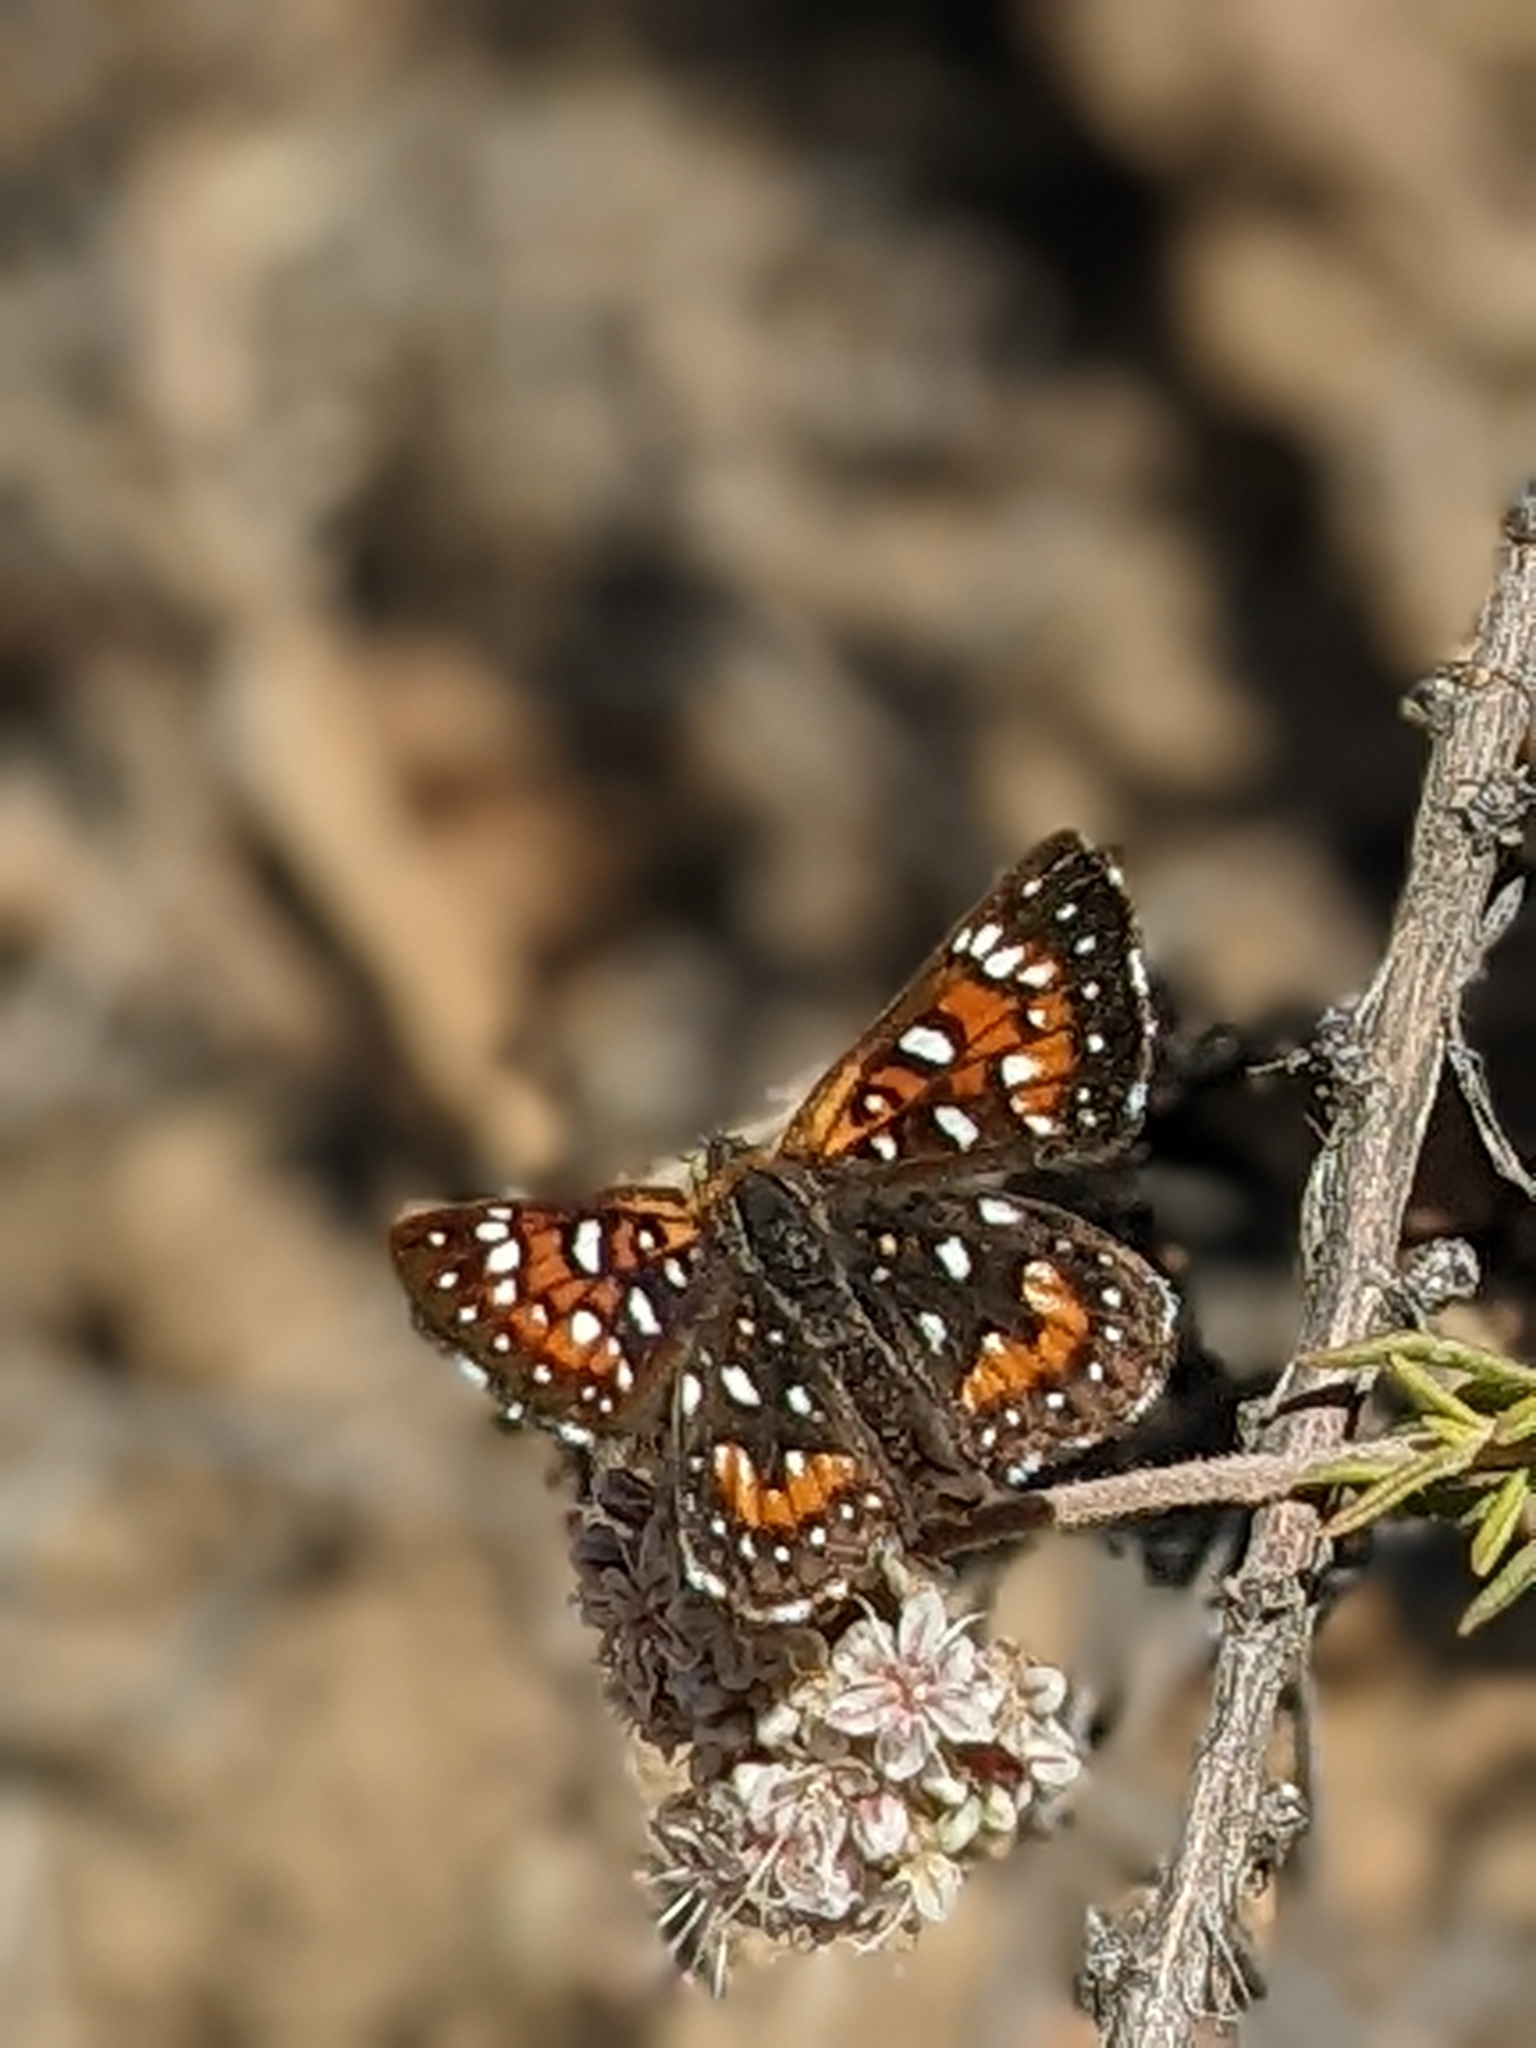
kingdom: Animalia
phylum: Arthropoda
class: Insecta
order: Lepidoptera
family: Riodinidae
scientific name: Riodinidae
